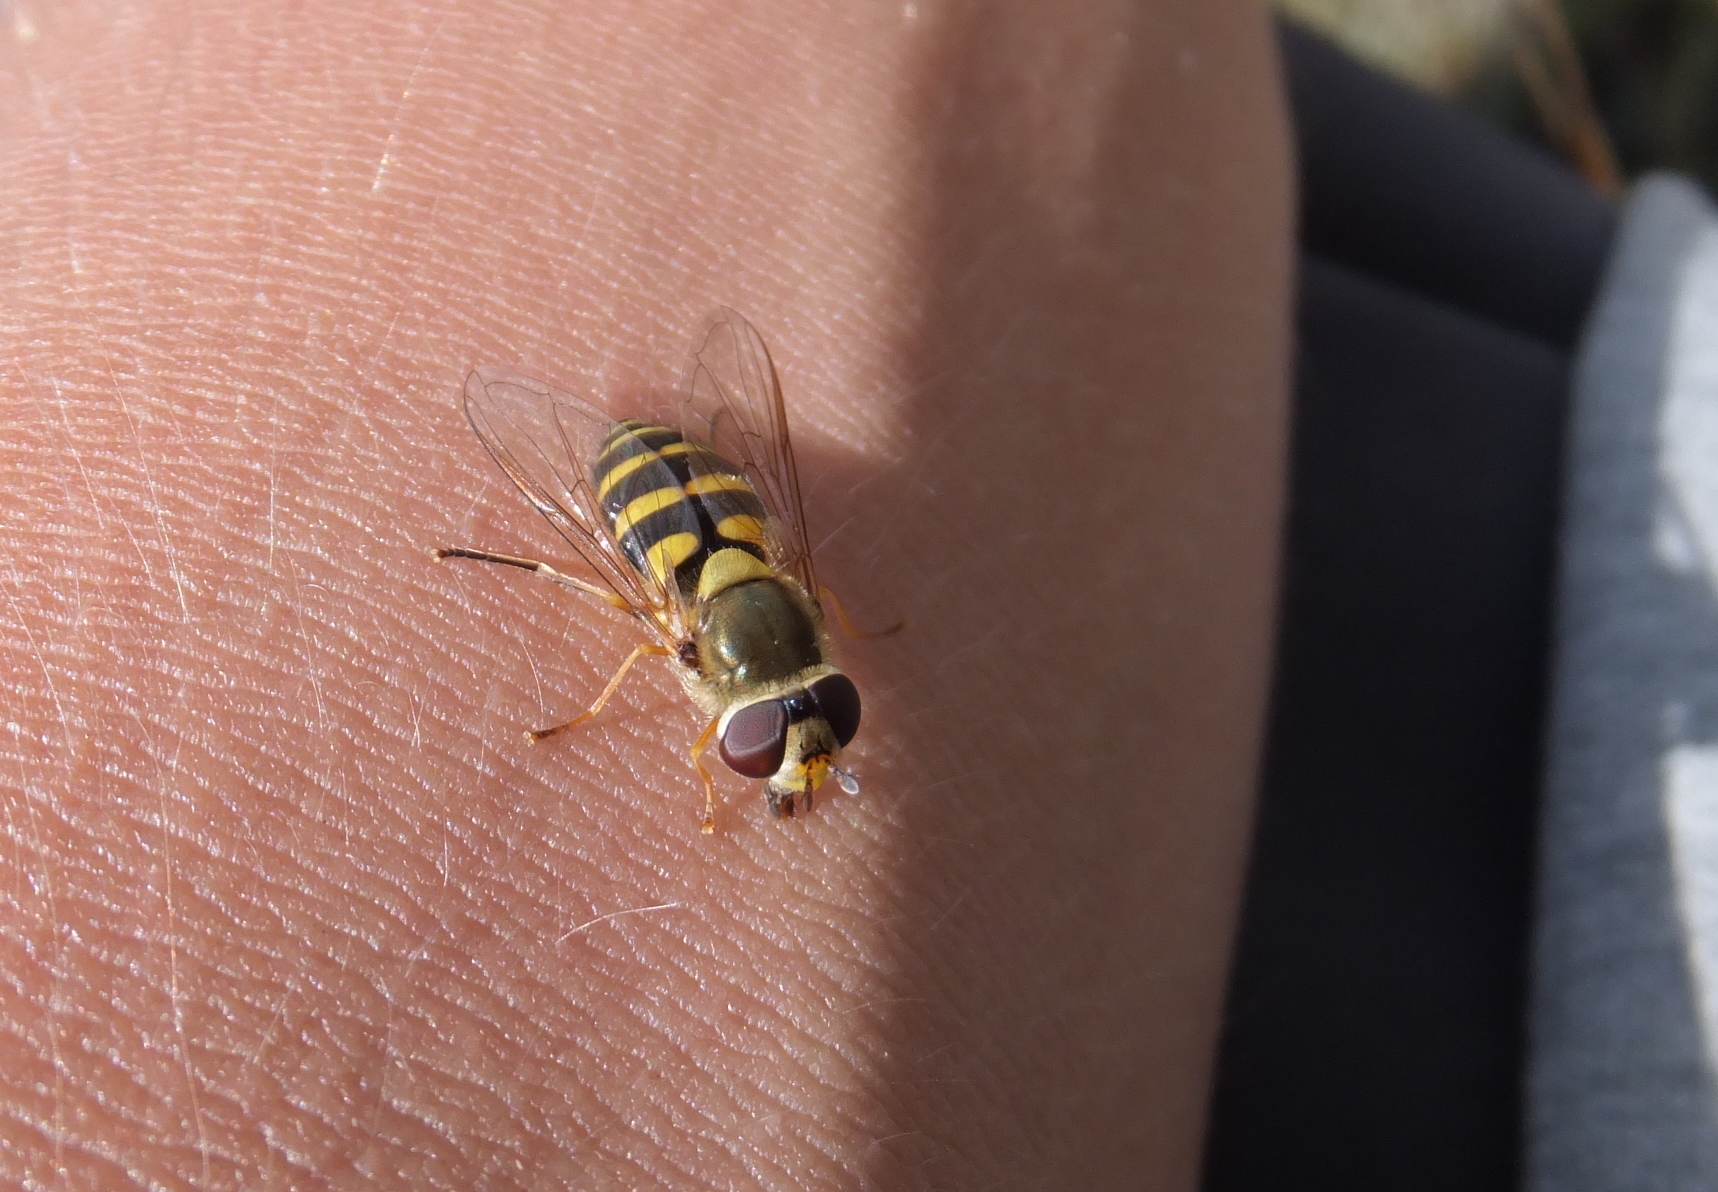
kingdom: Animalia
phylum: Arthropoda
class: Insecta
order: Diptera
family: Syrphidae
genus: Syrphus
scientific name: Syrphus
